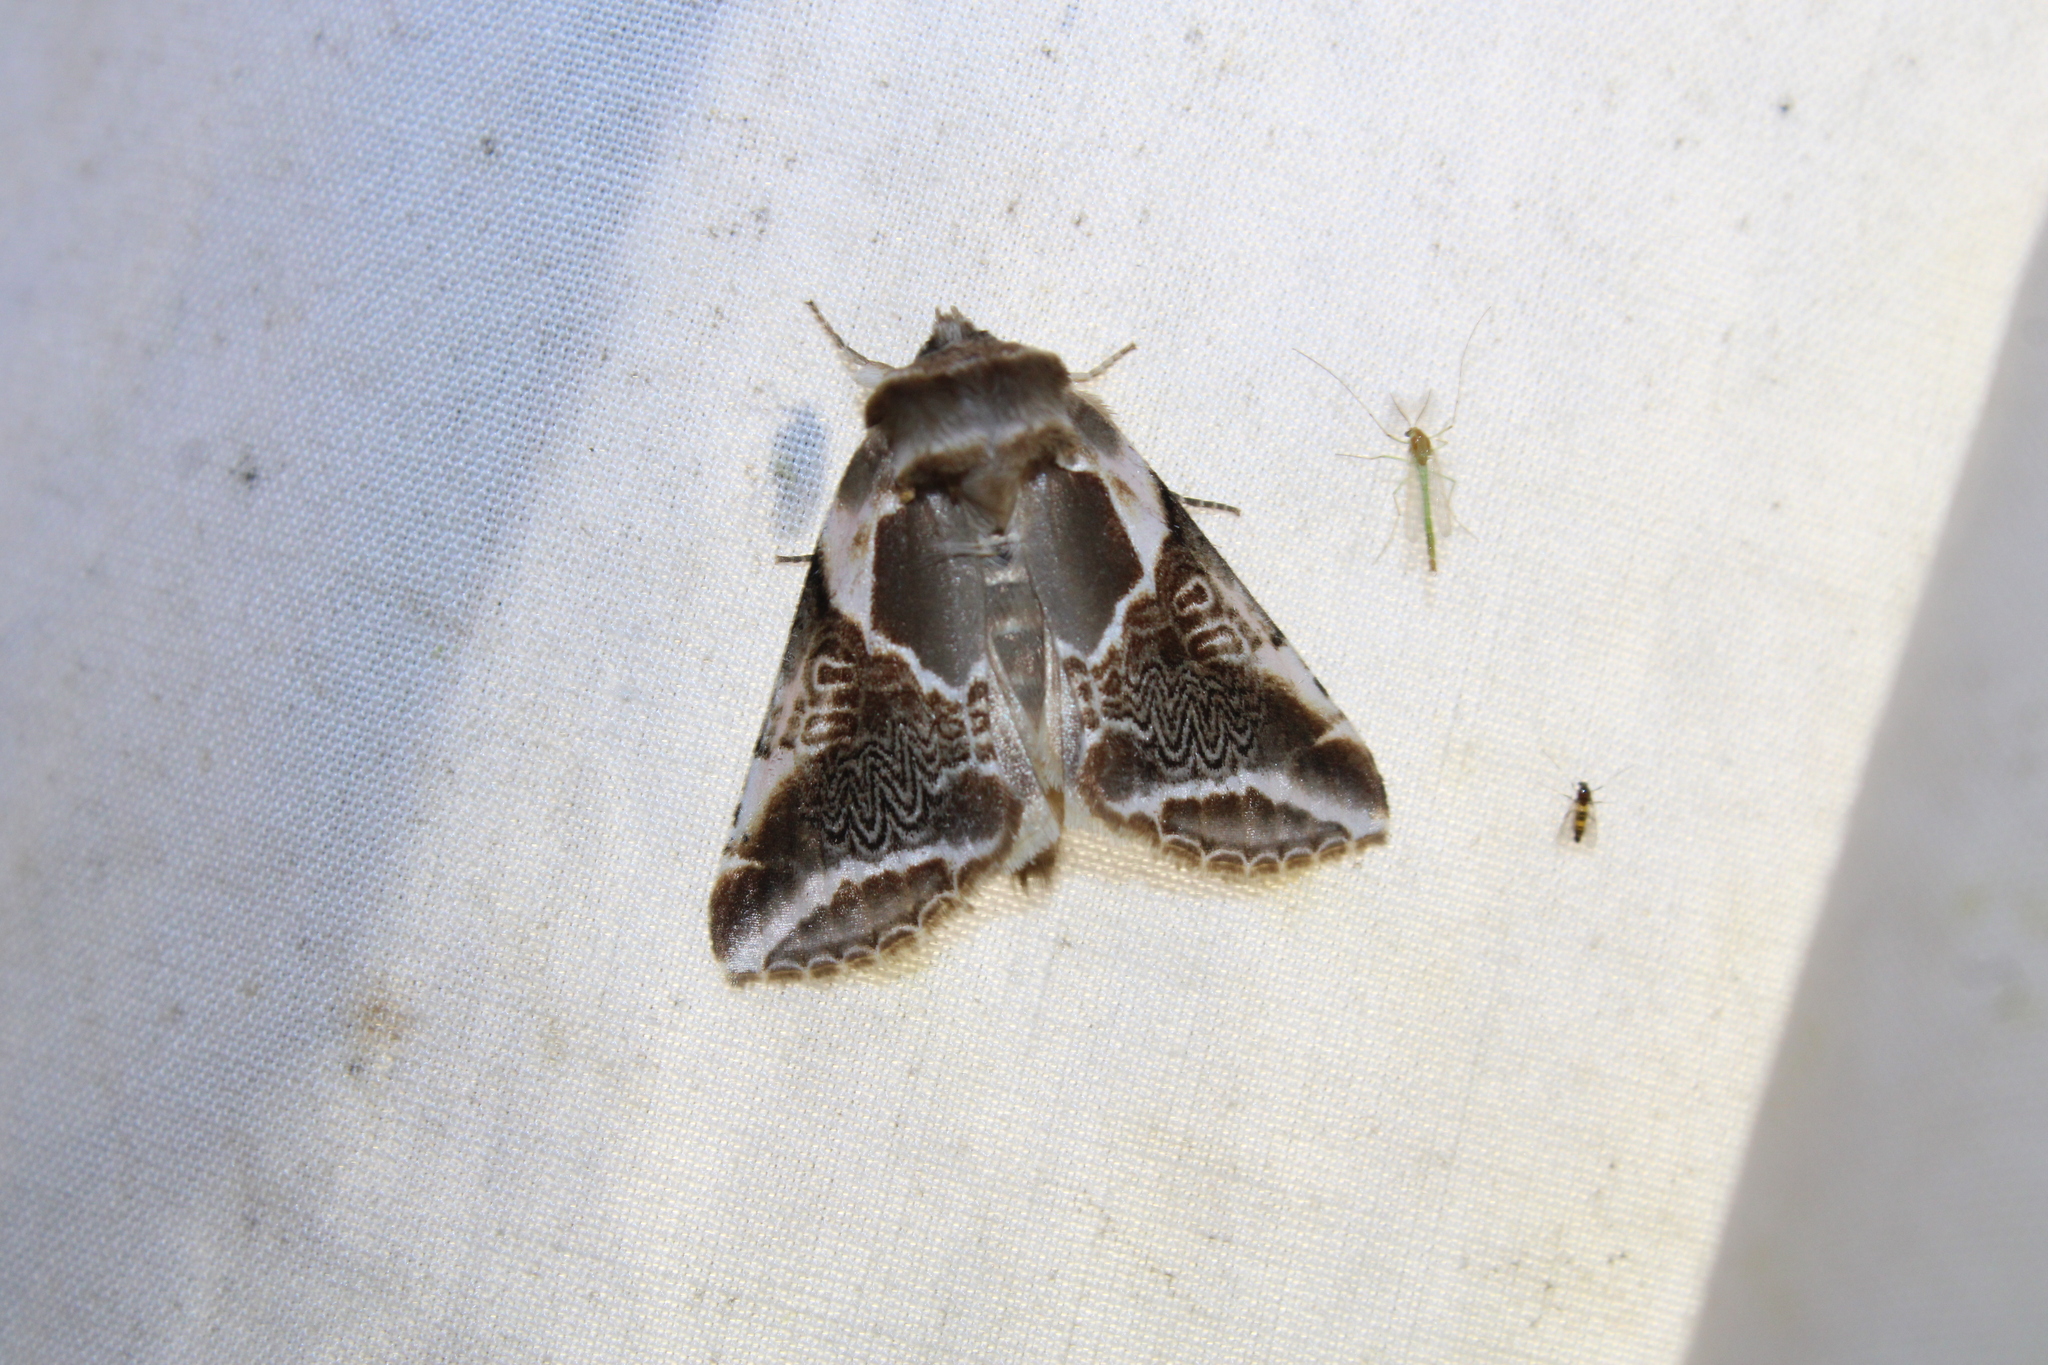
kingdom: Animalia
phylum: Arthropoda
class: Insecta
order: Lepidoptera
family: Drepanidae
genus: Habrosyne
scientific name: Habrosyne scripta
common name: Lettered habrosyne moth
